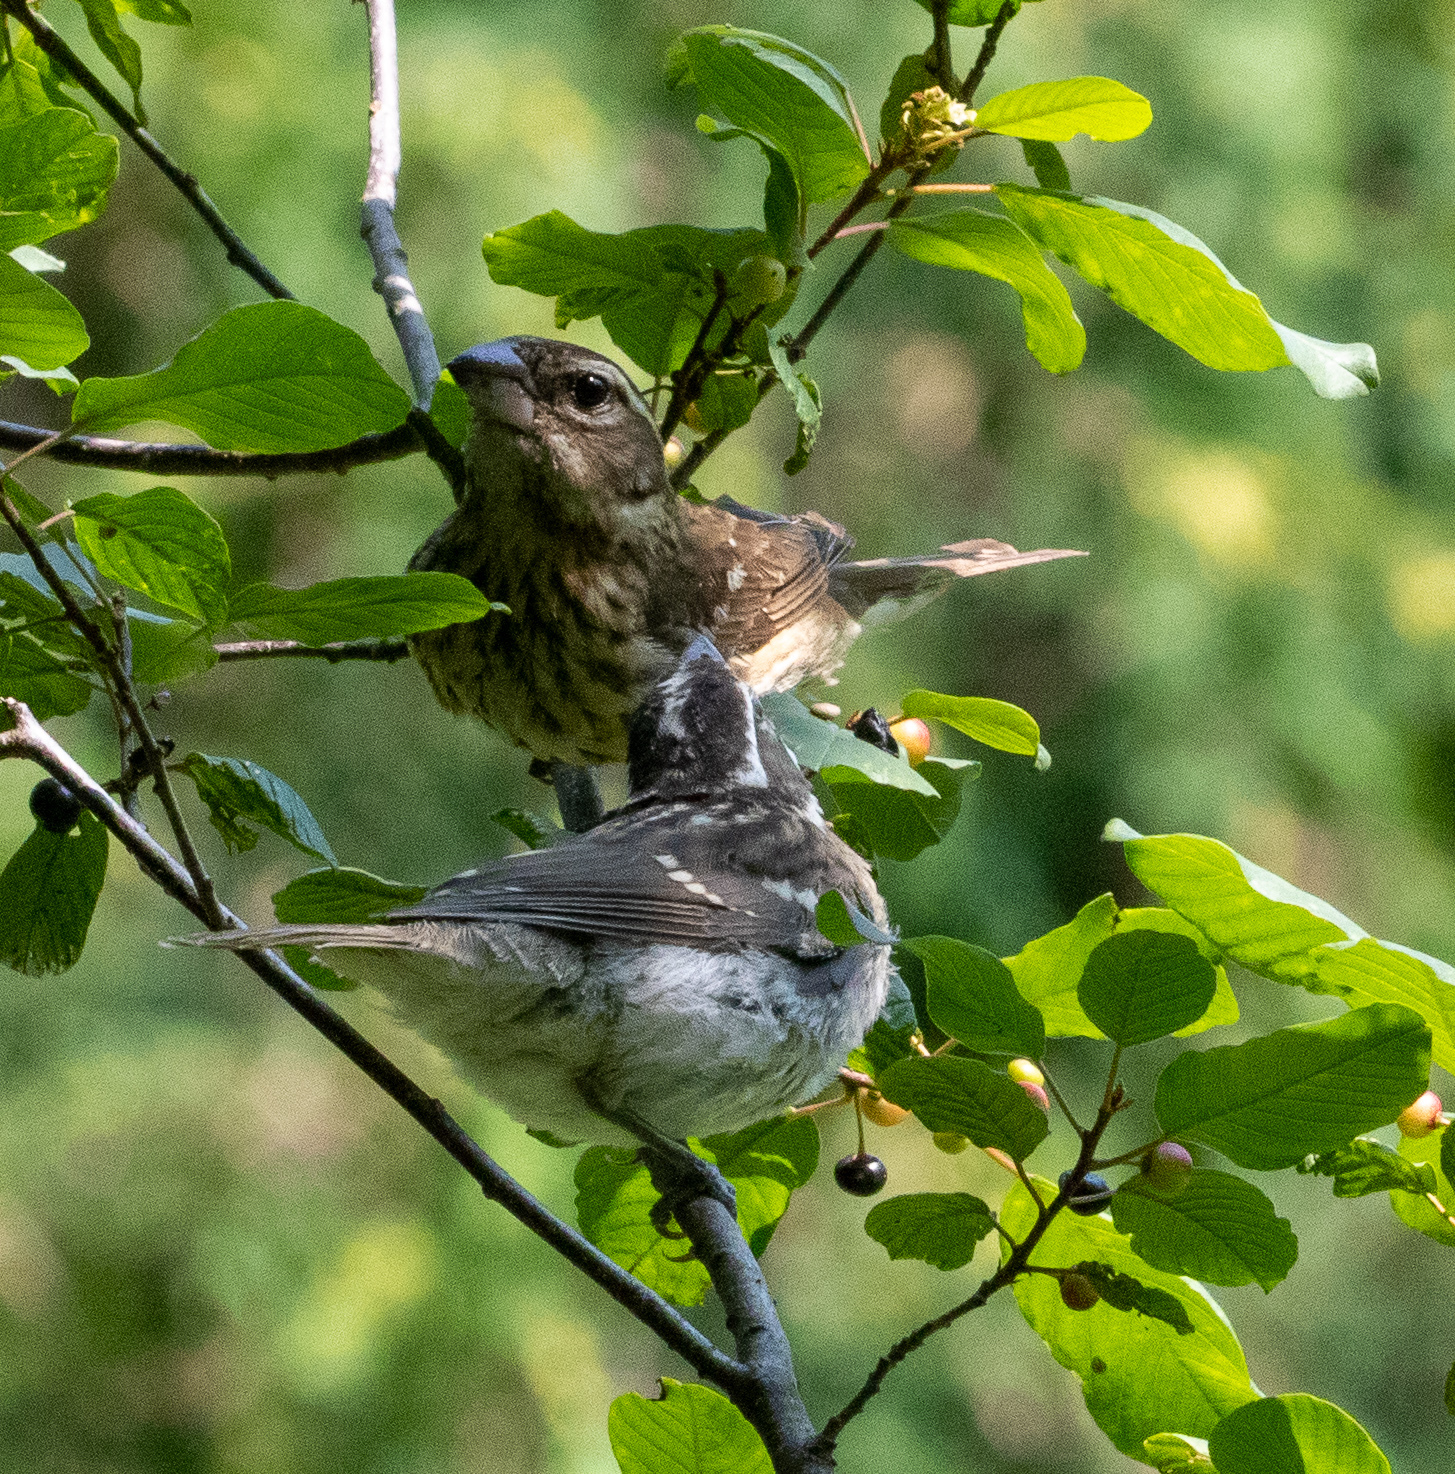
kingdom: Animalia
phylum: Chordata
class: Aves
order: Passeriformes
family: Cardinalidae
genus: Pheucticus
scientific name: Pheucticus ludovicianus
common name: Rose-breasted grosbeak
